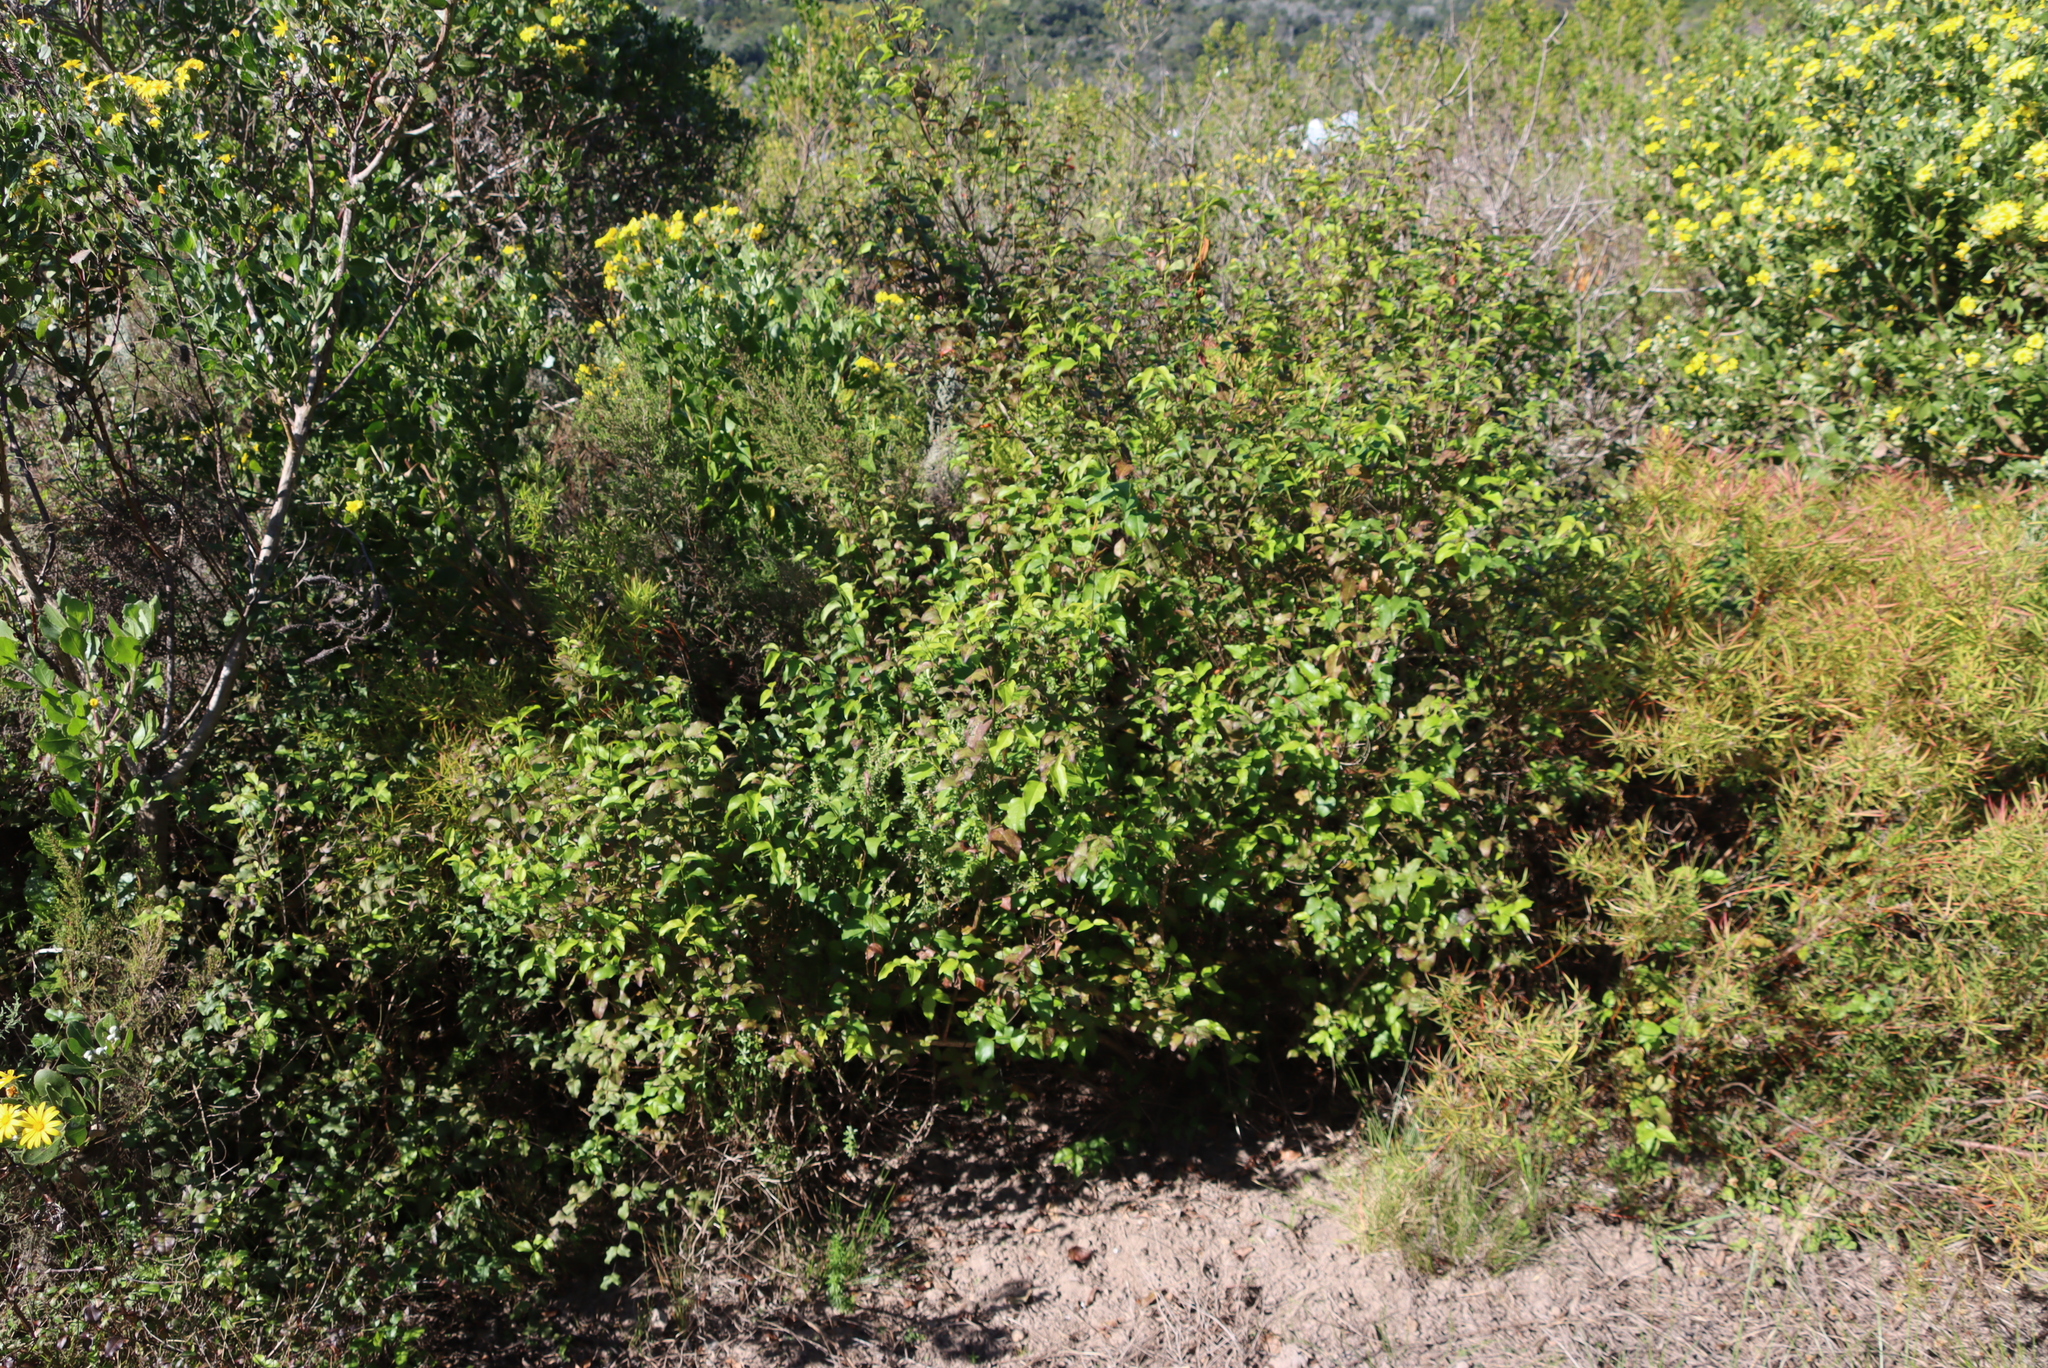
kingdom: Plantae
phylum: Tracheophyta
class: Magnoliopsida
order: Lamiales
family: Stilbaceae
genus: Halleria
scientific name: Halleria lucida
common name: Tree fuschia
